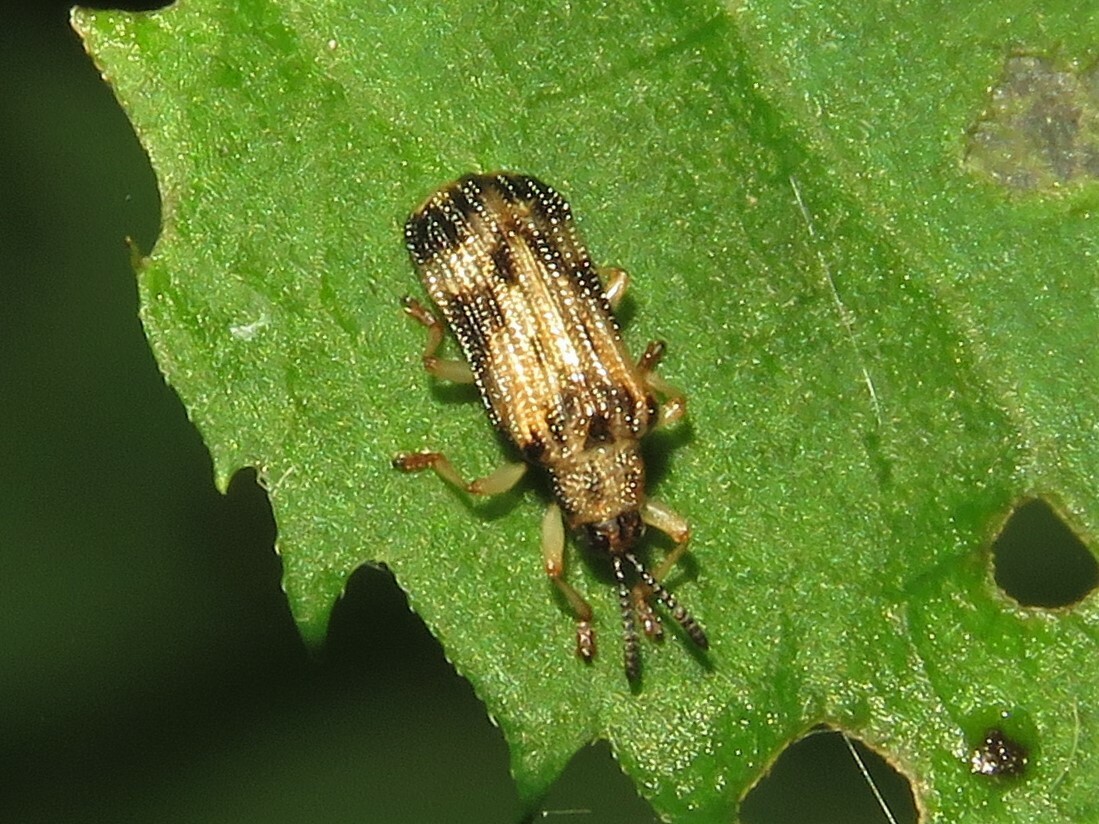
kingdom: Animalia
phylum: Arthropoda
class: Insecta
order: Coleoptera
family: Chrysomelidae
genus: Sumitrosis
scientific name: Sumitrosis inaequalis
